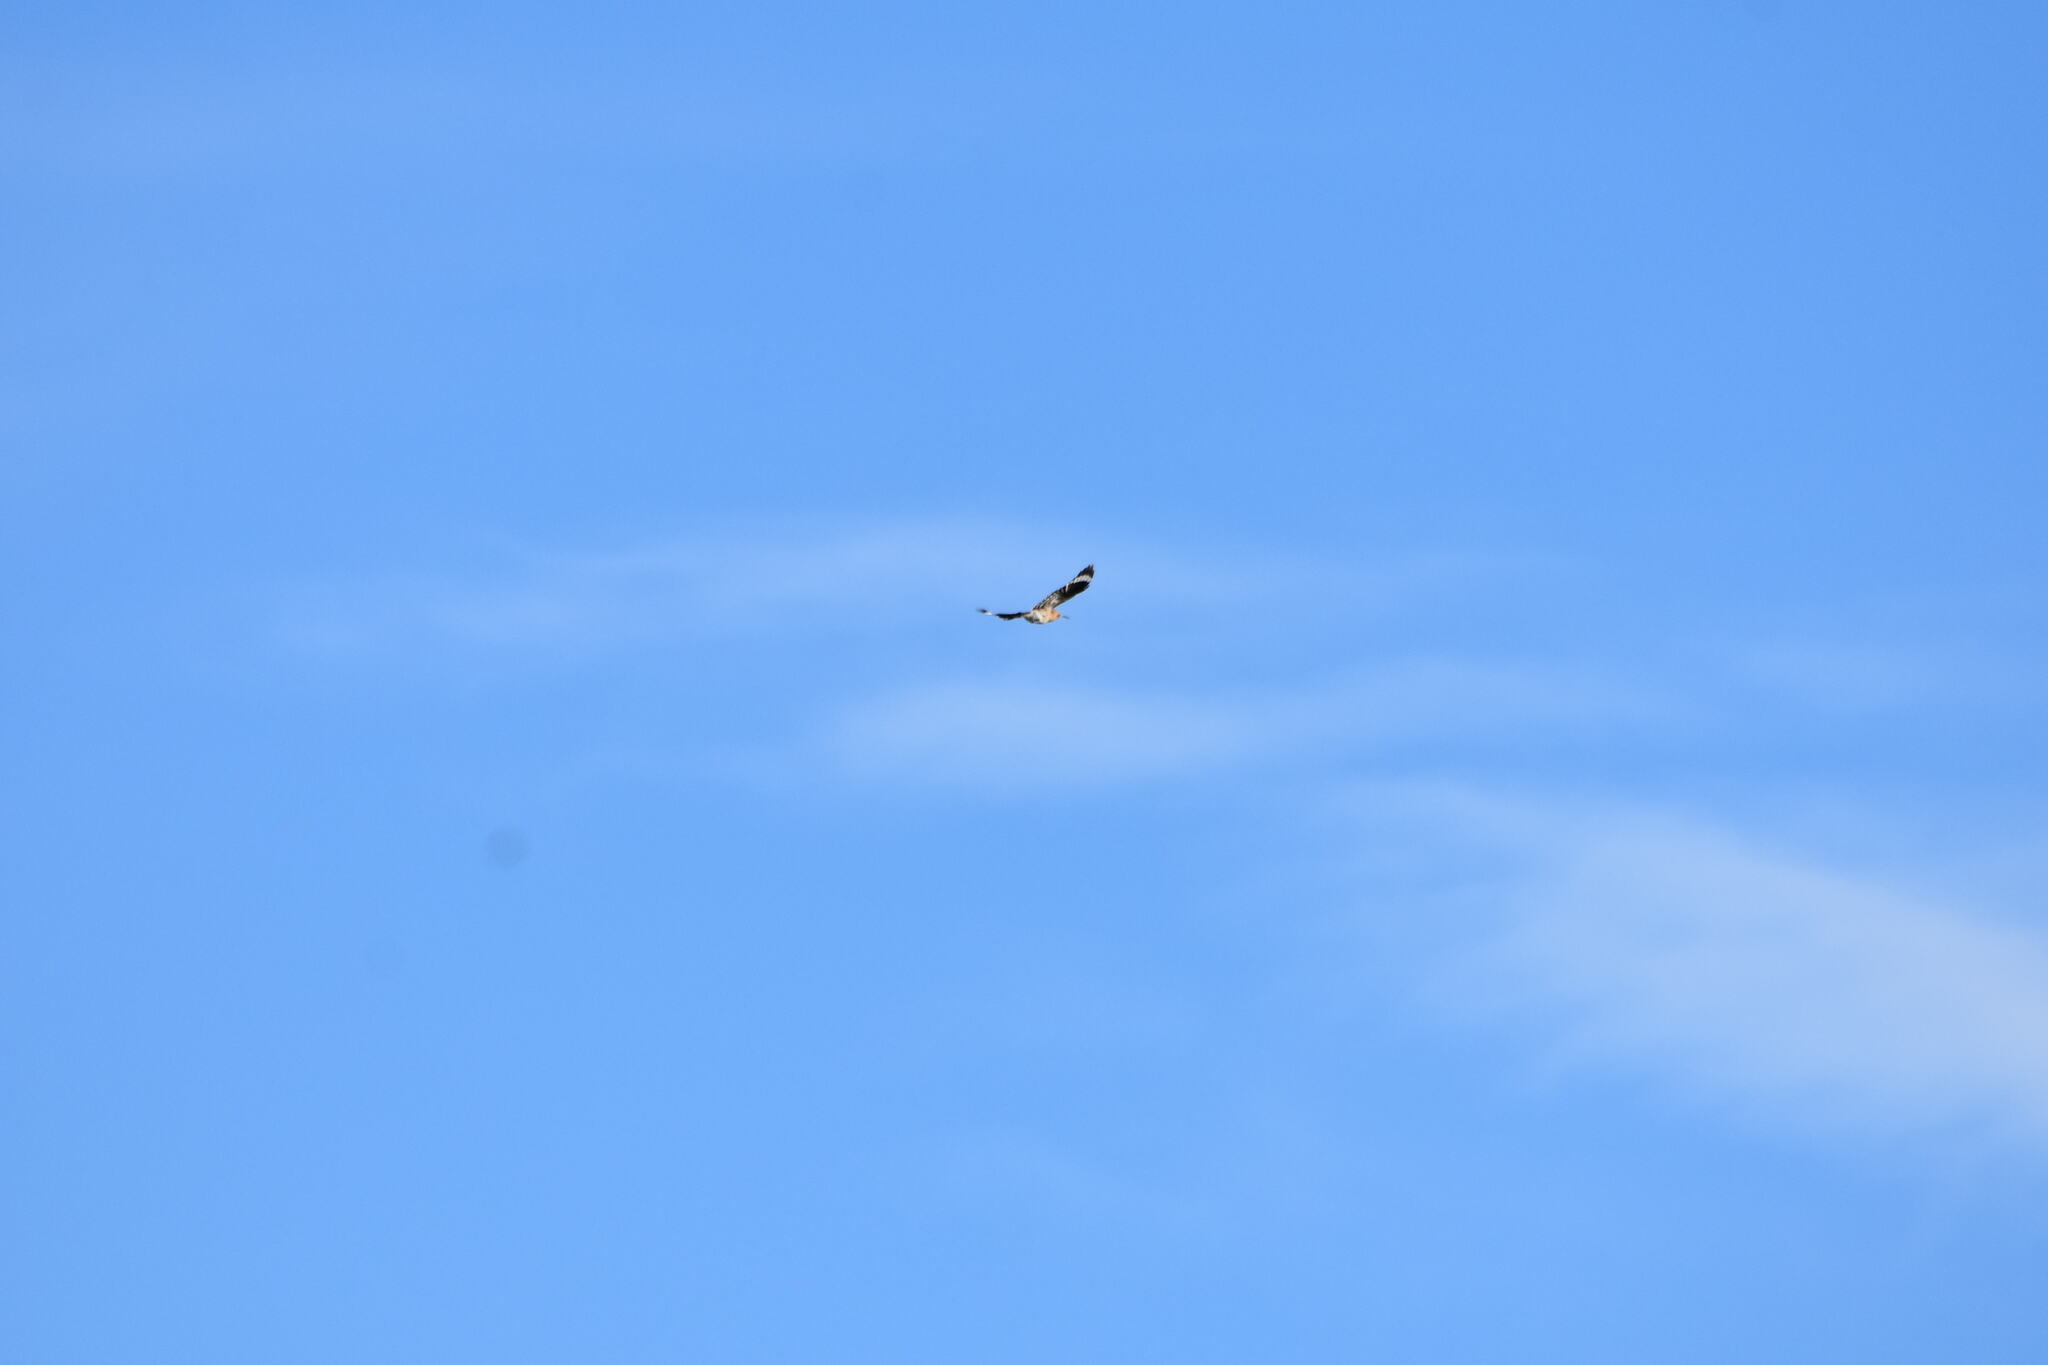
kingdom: Animalia
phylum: Chordata
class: Aves
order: Bucerotiformes
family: Upupidae
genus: Upupa
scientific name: Upupa epops
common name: Eurasian hoopoe
